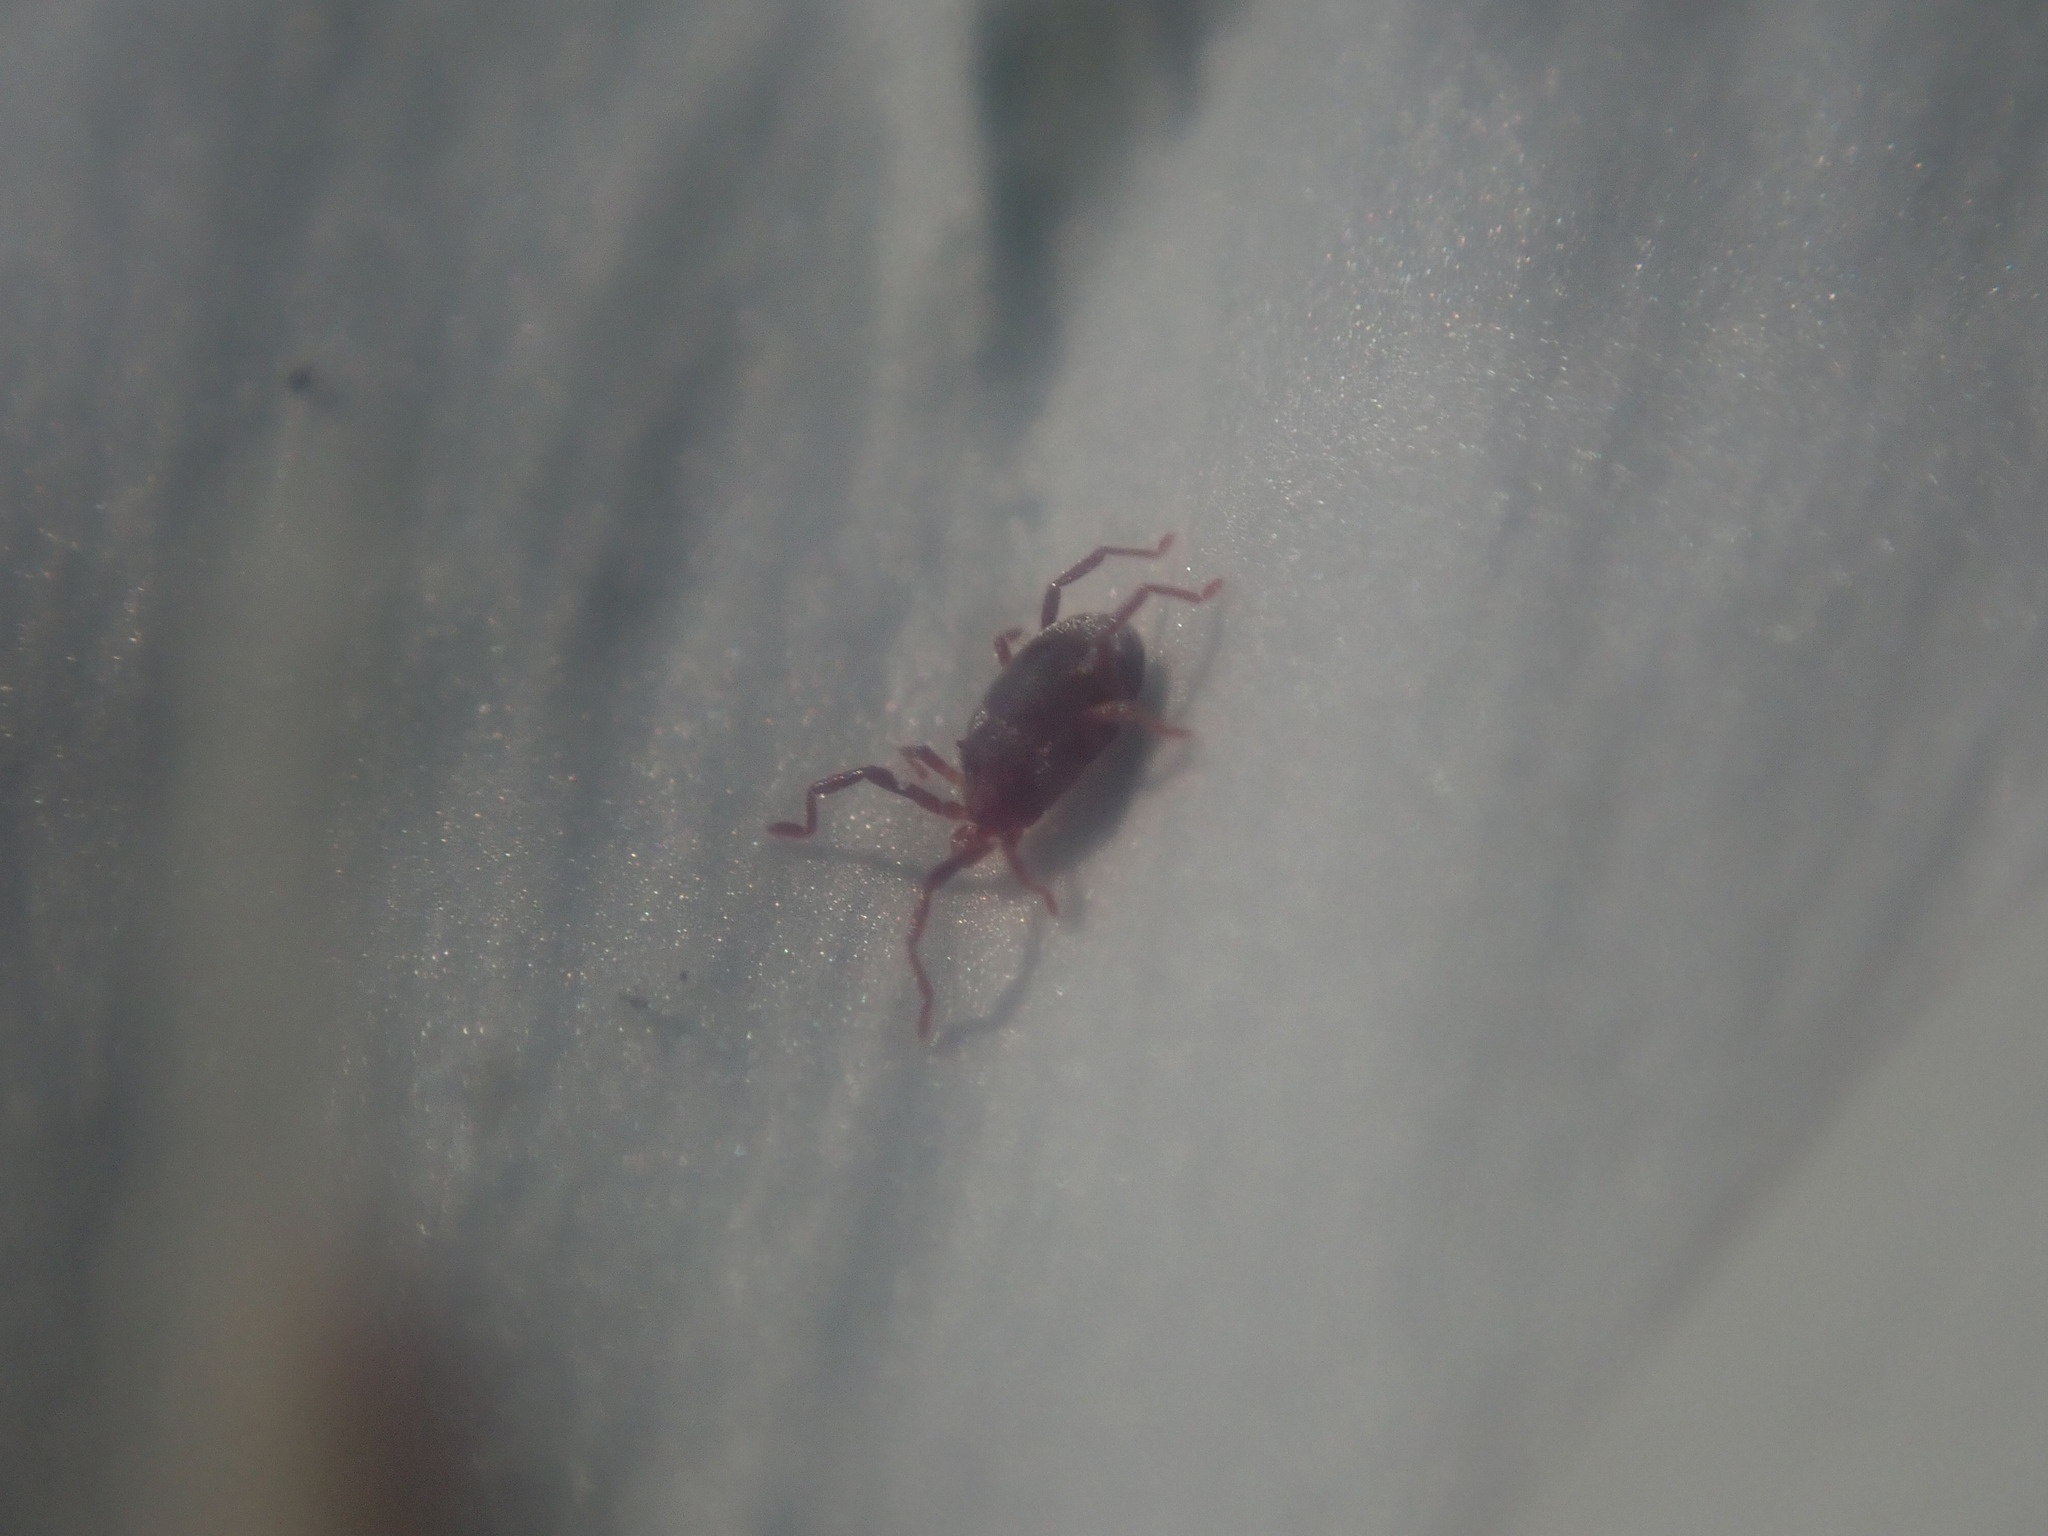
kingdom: Animalia
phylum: Arthropoda
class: Arachnida
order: Trombidiformes
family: Erythraeidae
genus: Balaustium
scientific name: Balaustium
